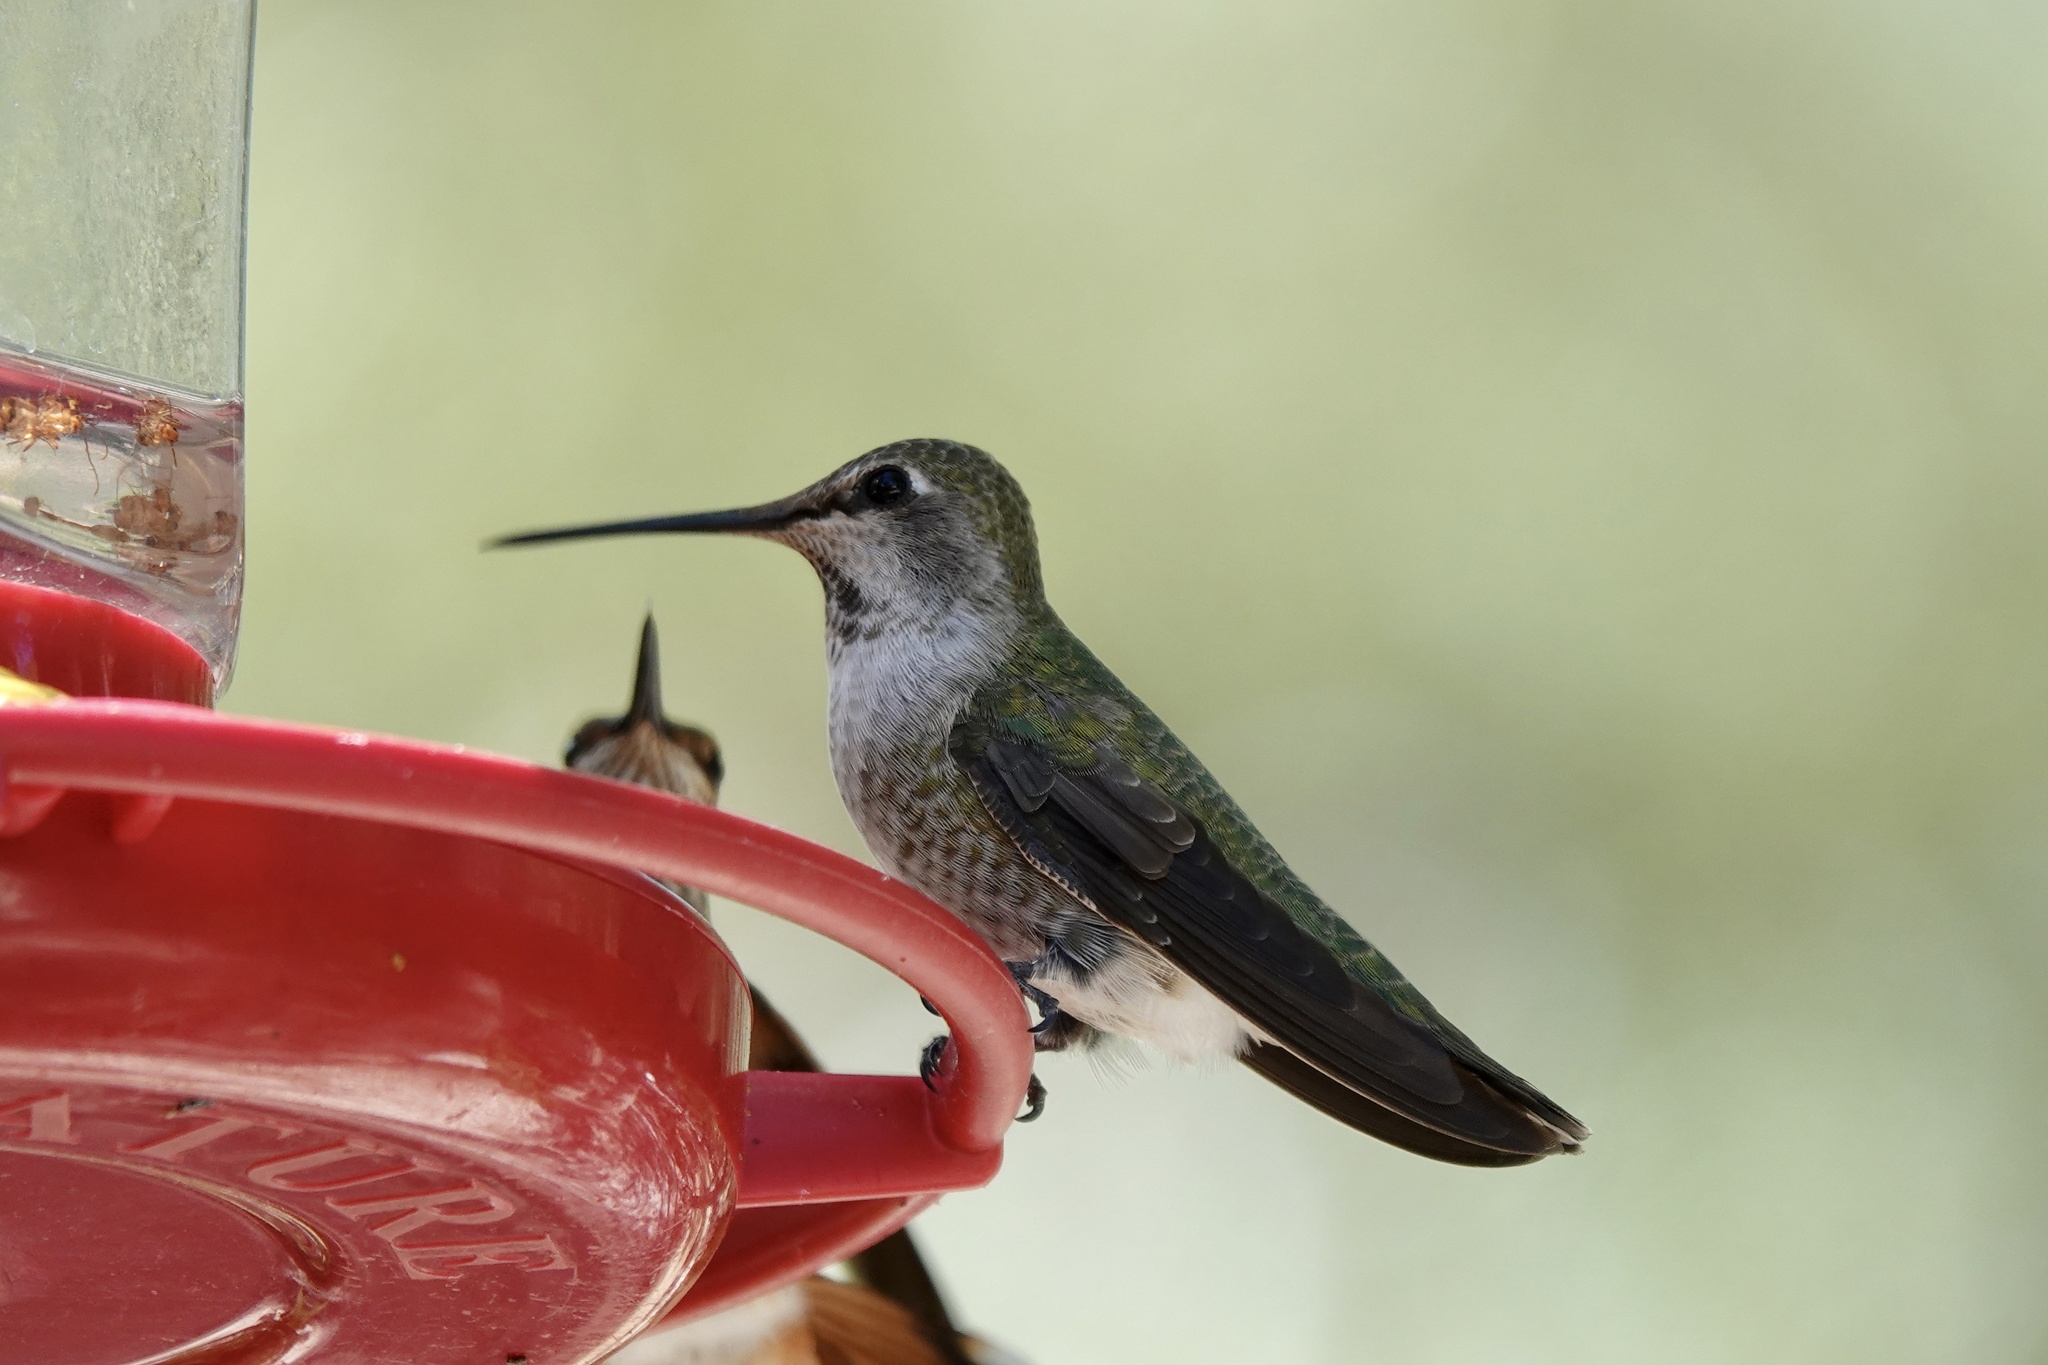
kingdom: Animalia
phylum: Chordata
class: Aves
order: Apodiformes
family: Trochilidae
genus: Calypte
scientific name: Calypte anna
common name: Anna's hummingbird
